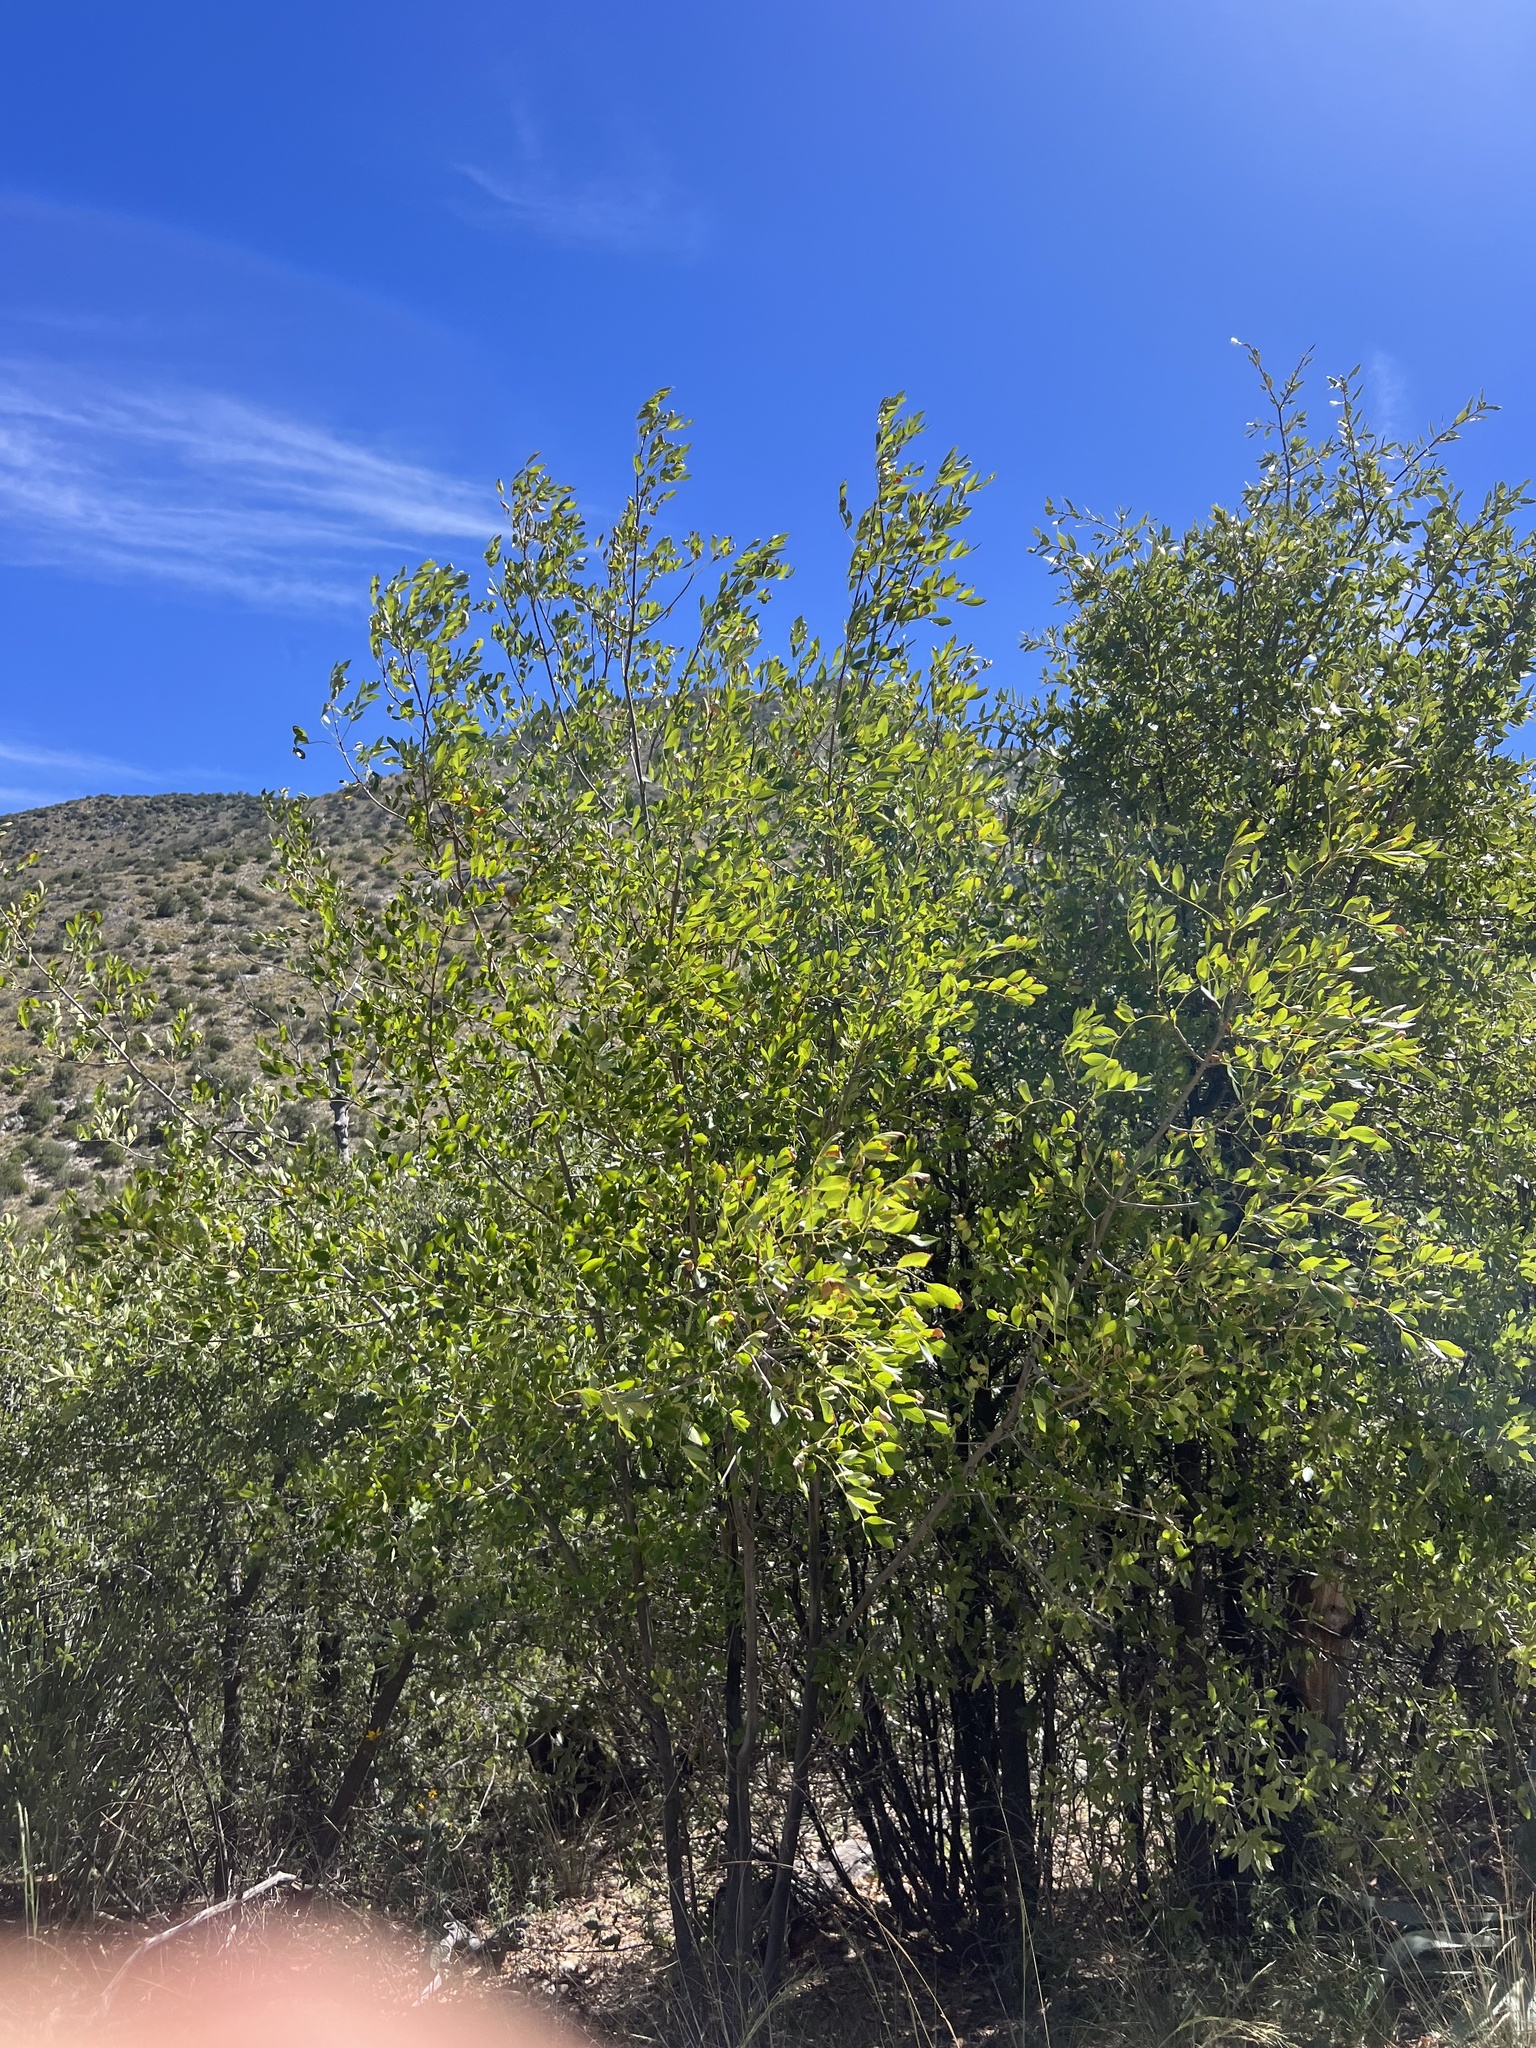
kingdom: Plantae
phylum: Tracheophyta
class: Magnoliopsida
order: Lamiales
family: Oleaceae
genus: Fraxinus
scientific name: Fraxinus velutina
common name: Arizon ash
